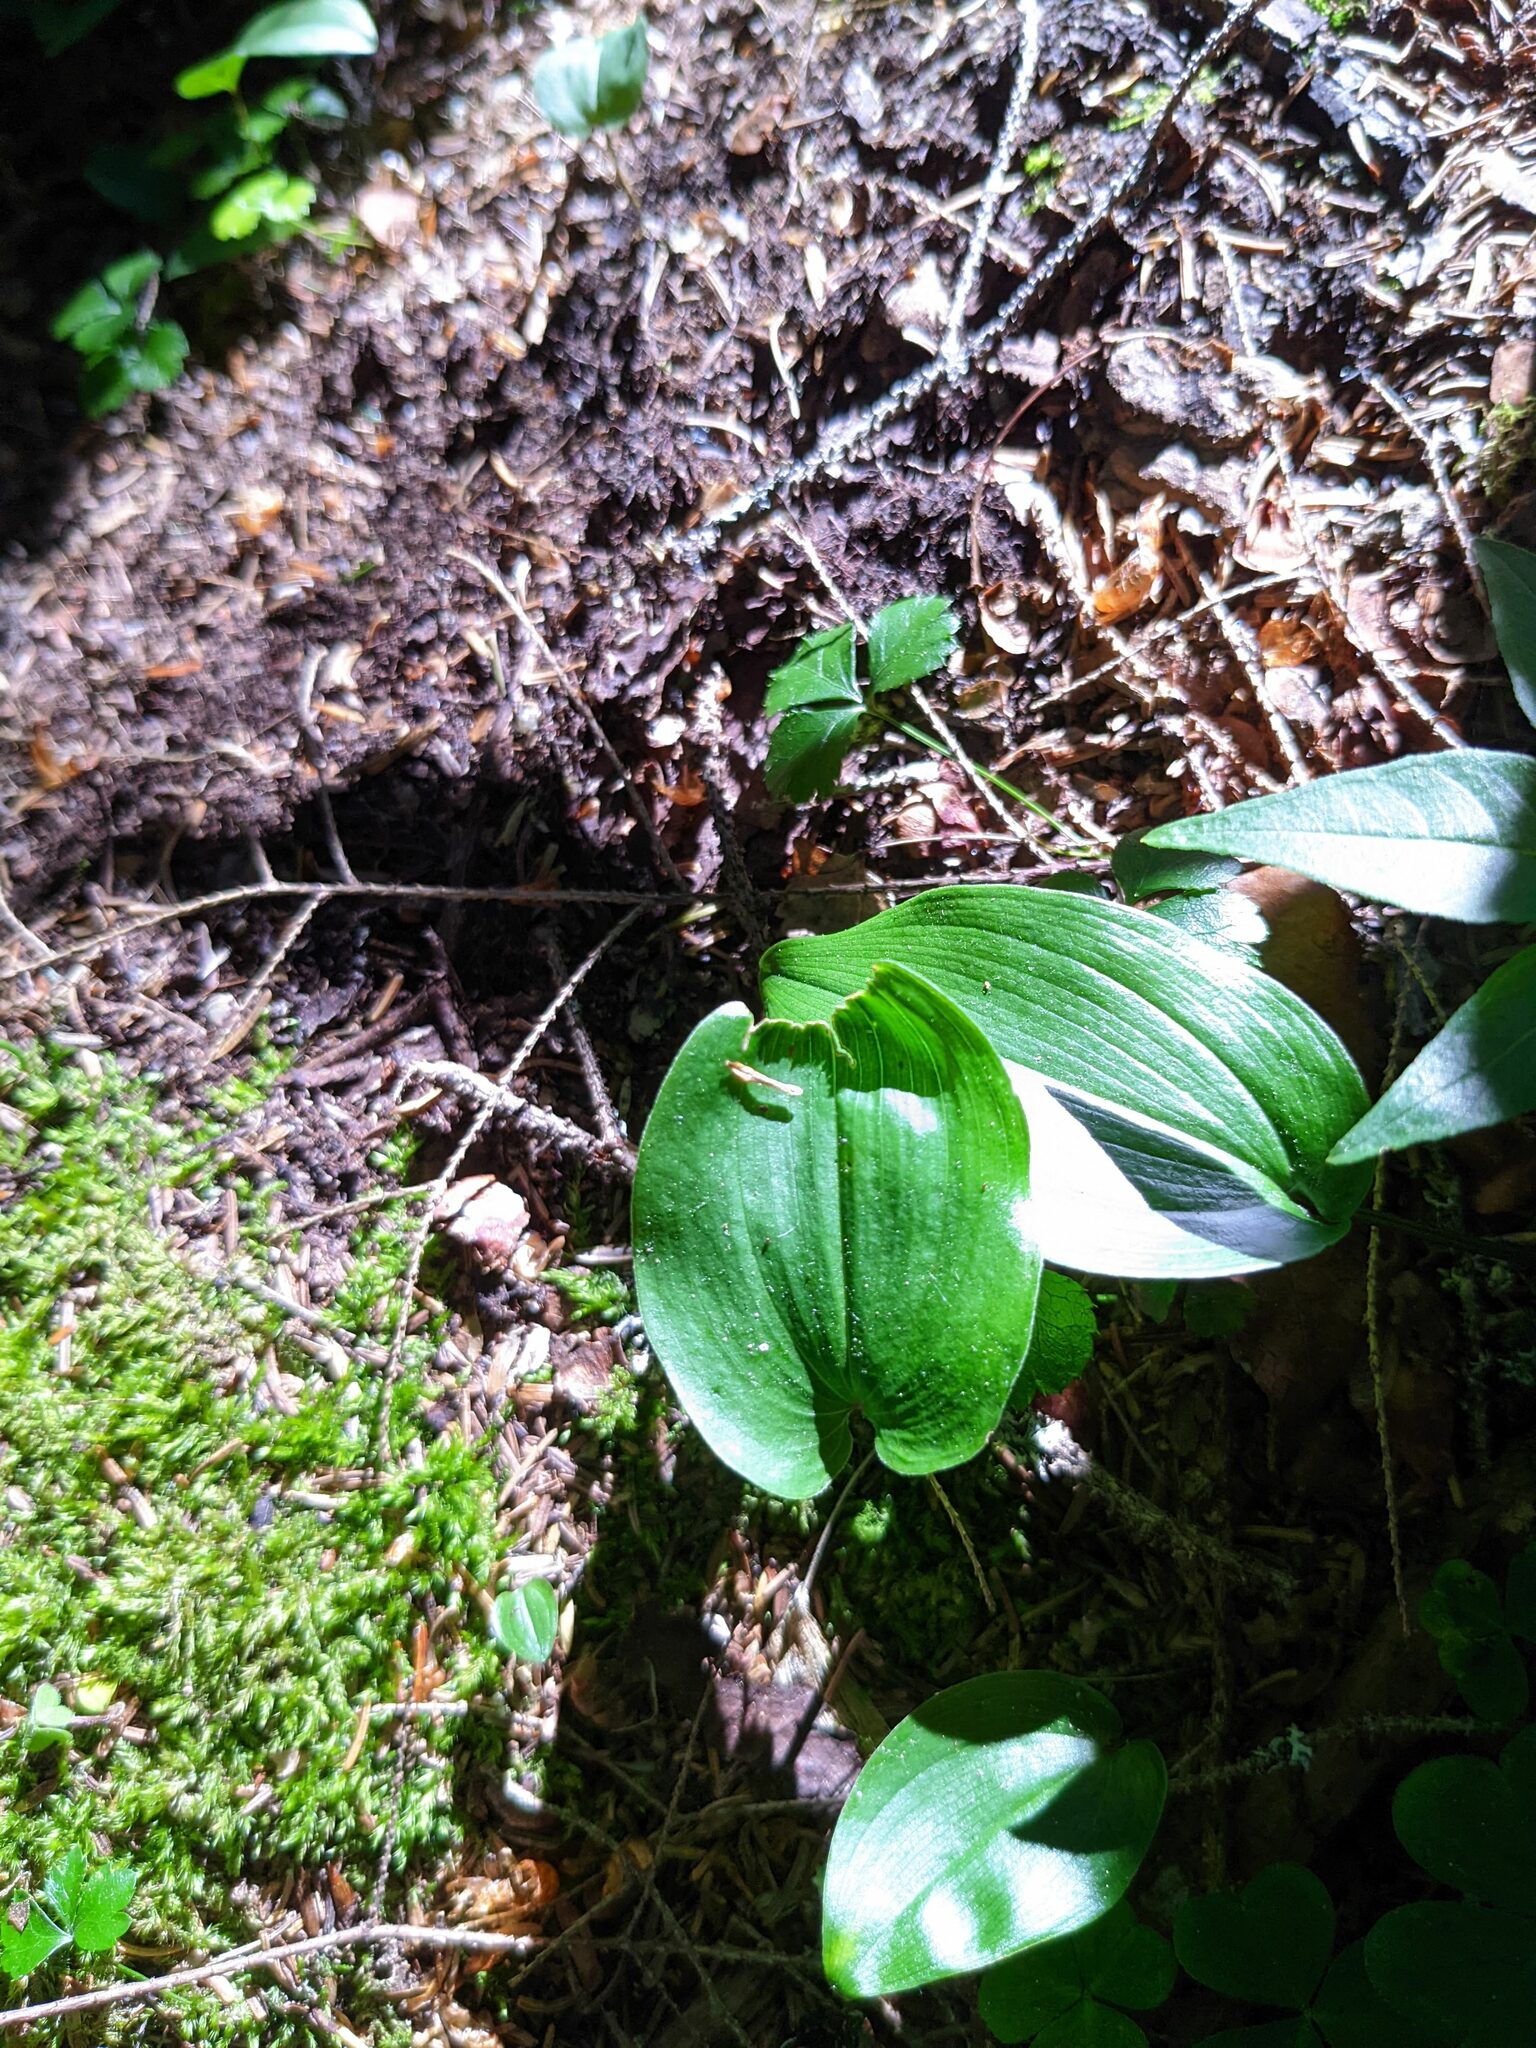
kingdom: Plantae
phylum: Tracheophyta
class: Liliopsida
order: Asparagales
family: Asparagaceae
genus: Maianthemum
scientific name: Maianthemum canadense
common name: False lily-of-the-valley
